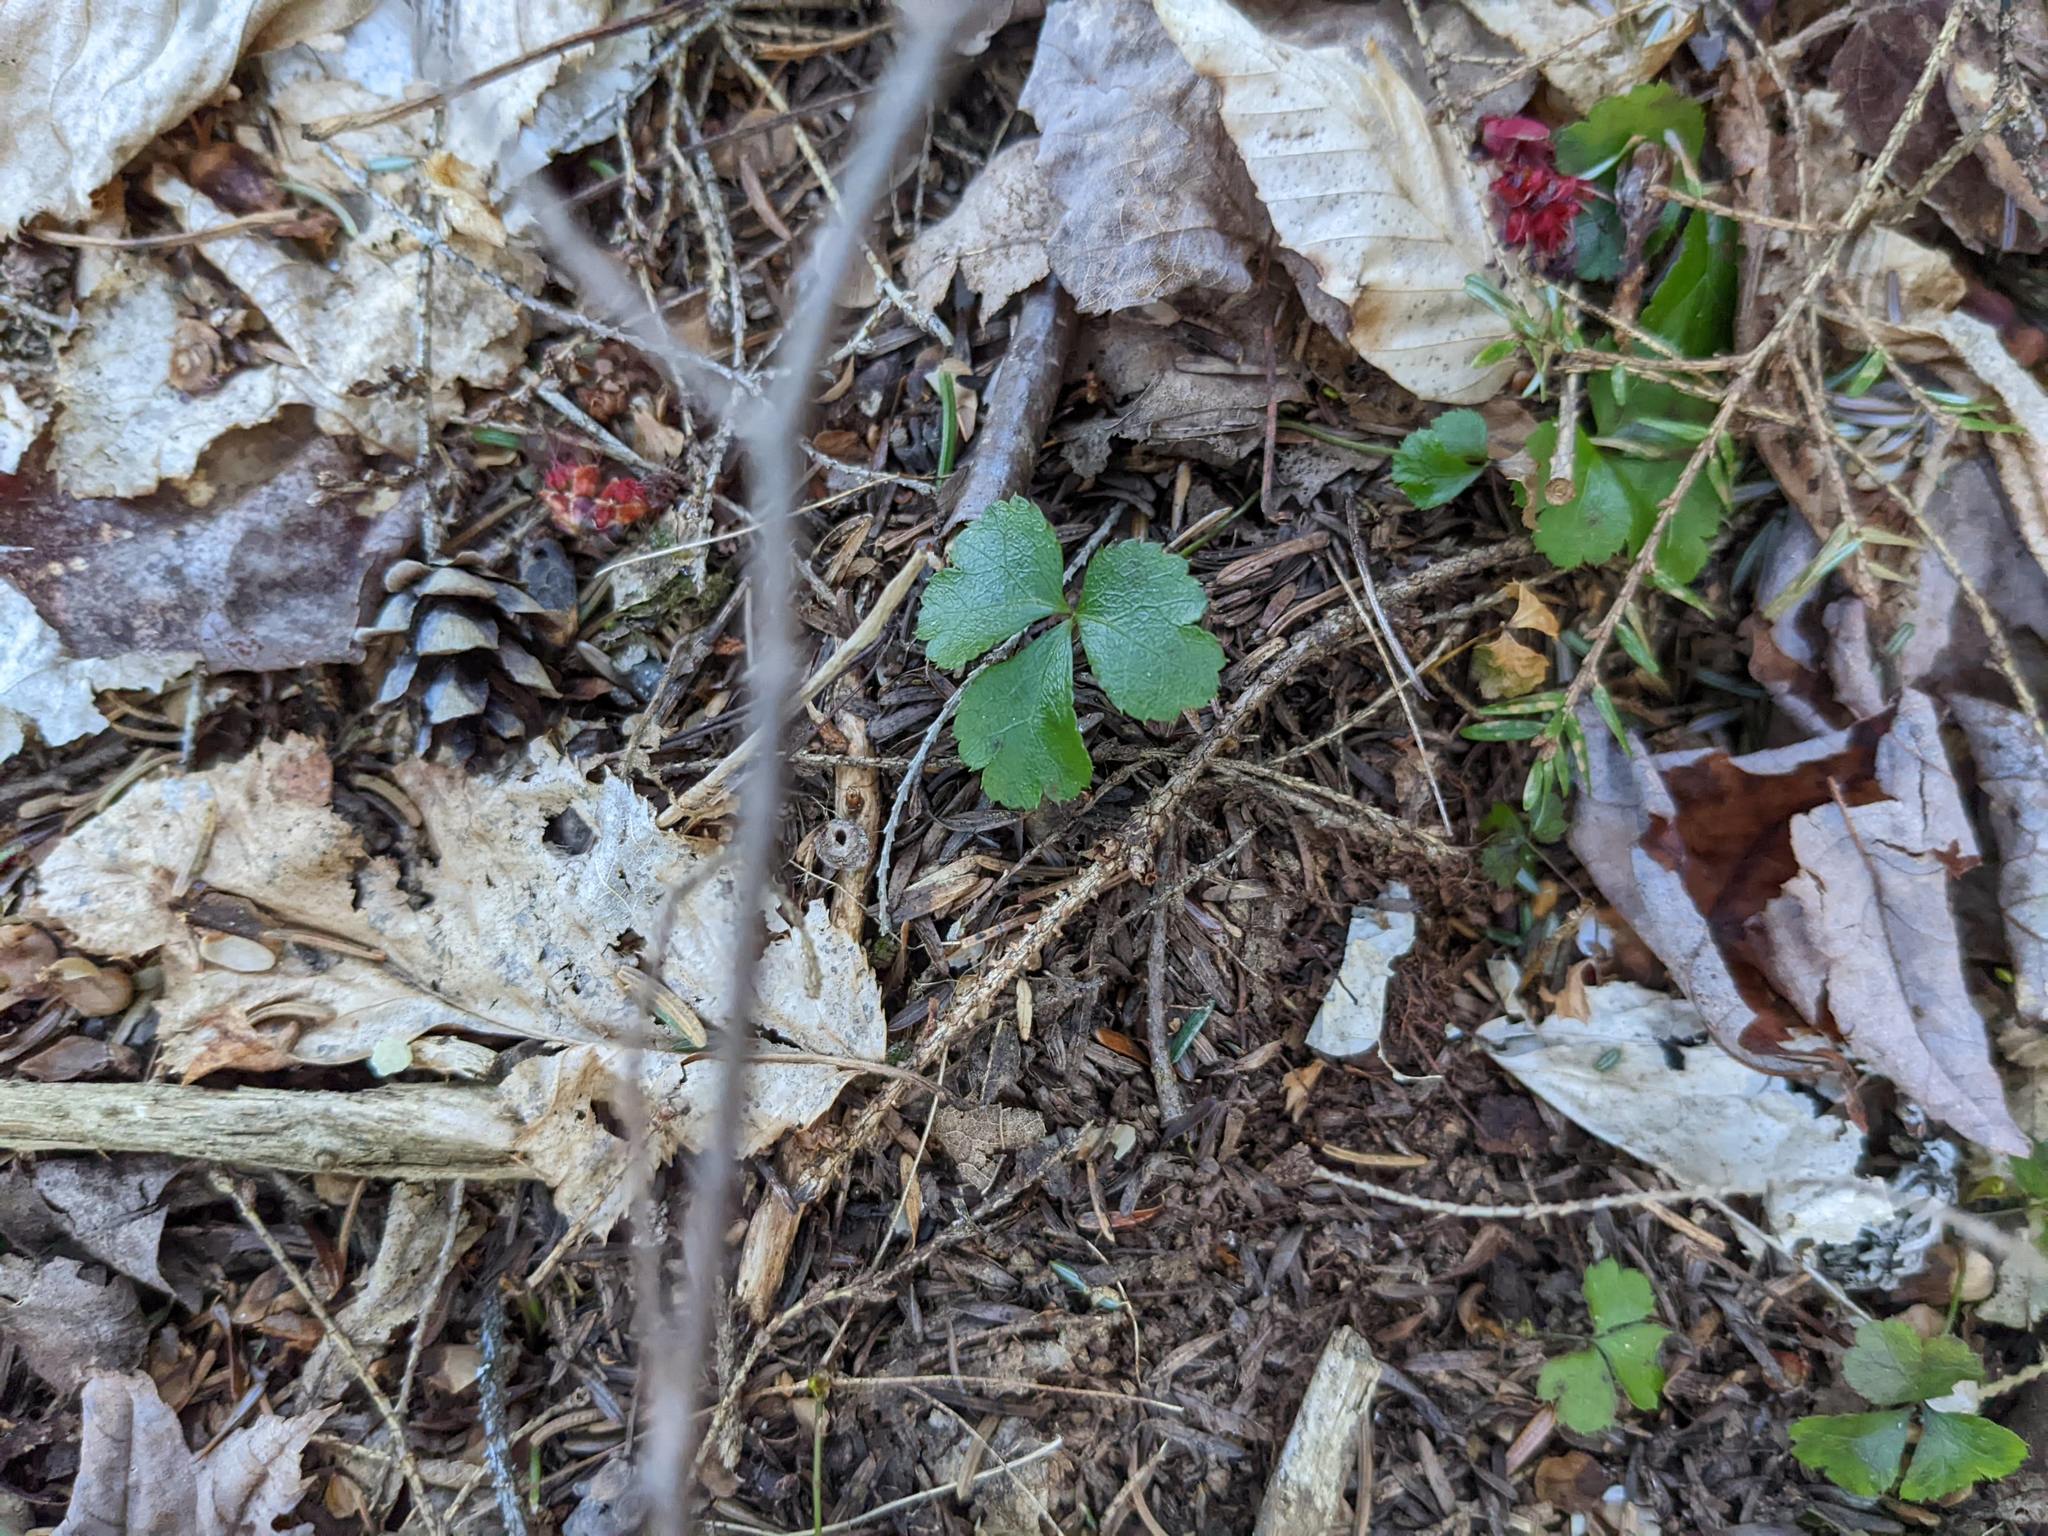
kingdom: Plantae
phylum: Tracheophyta
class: Magnoliopsida
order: Ranunculales
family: Ranunculaceae
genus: Coptis
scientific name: Coptis trifolia
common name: Canker-root
